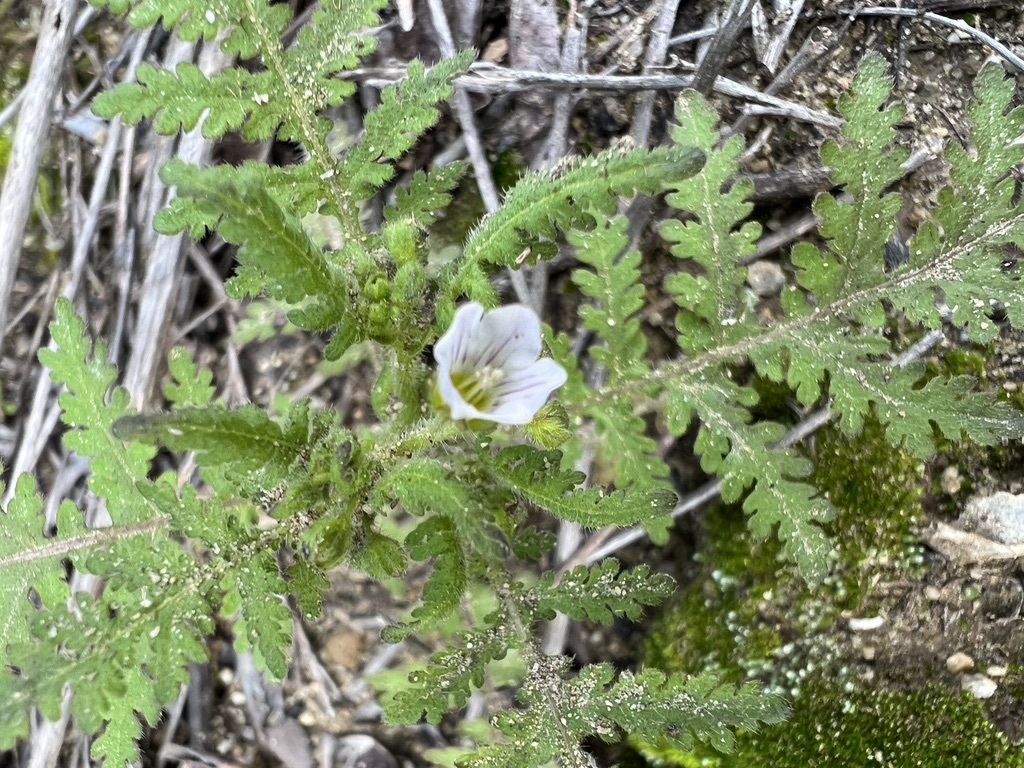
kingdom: Plantae
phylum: Tracheophyta
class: Magnoliopsida
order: Boraginales
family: Hydrophyllaceae
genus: Eucrypta
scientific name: Eucrypta chrysanthemifolia
